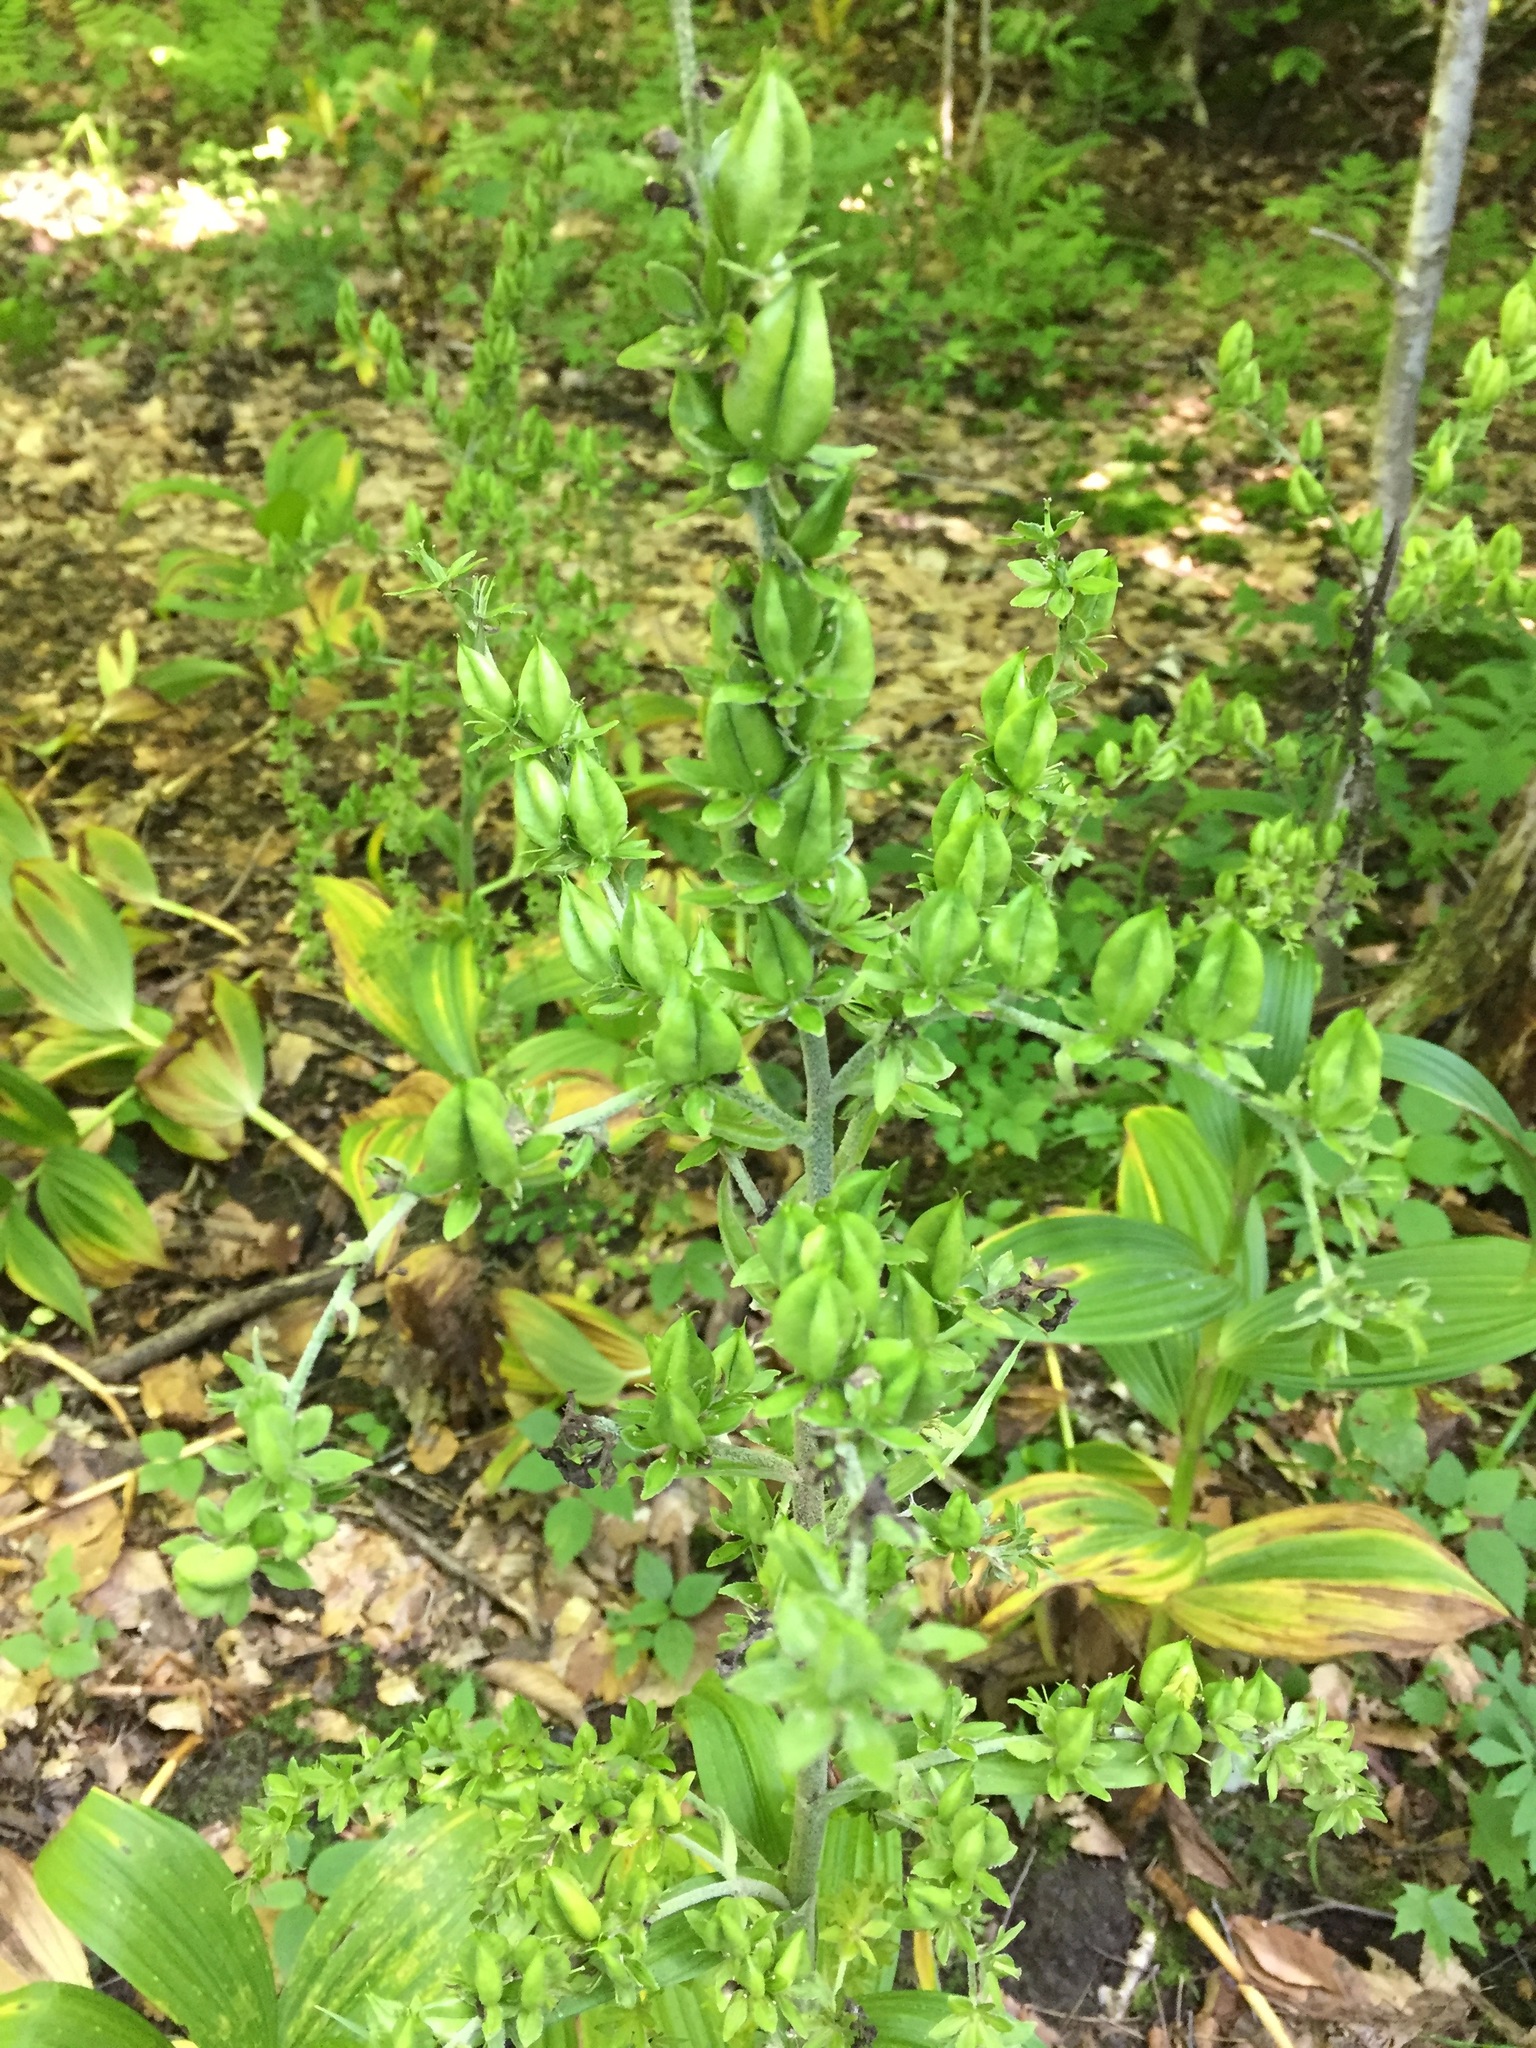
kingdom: Plantae
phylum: Tracheophyta
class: Liliopsida
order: Liliales
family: Melanthiaceae
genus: Veratrum
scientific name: Veratrum viride
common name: American false hellebore
